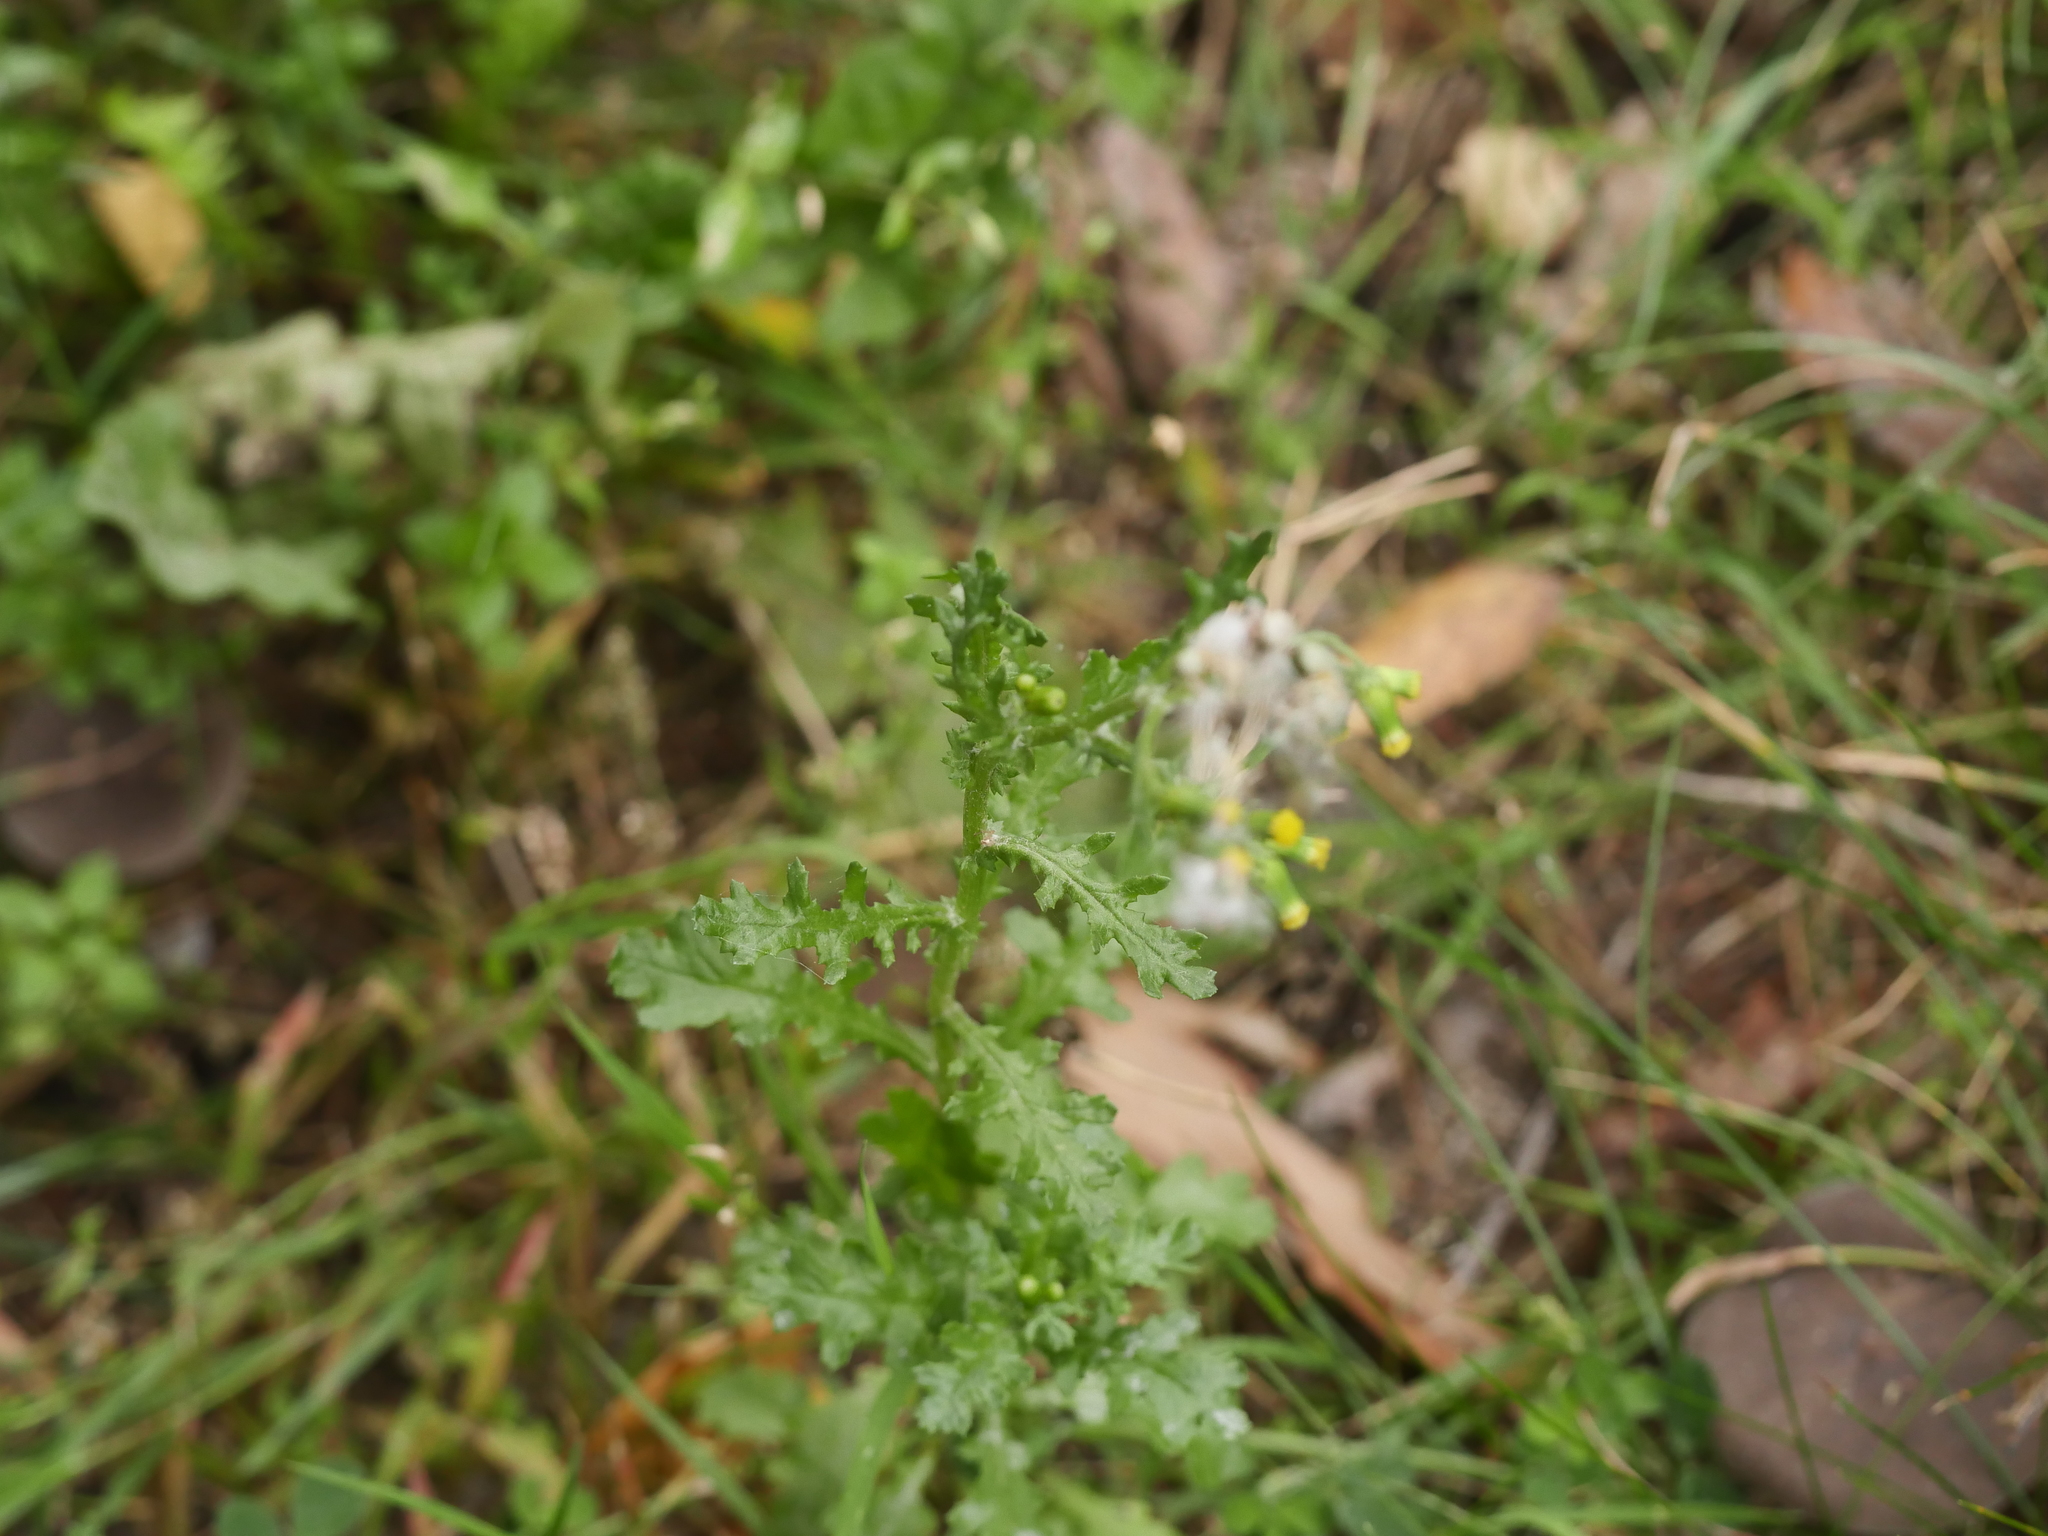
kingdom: Plantae
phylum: Tracheophyta
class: Magnoliopsida
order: Asterales
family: Asteraceae
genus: Senecio
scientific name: Senecio vulgaris
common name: Old-man-in-the-spring
